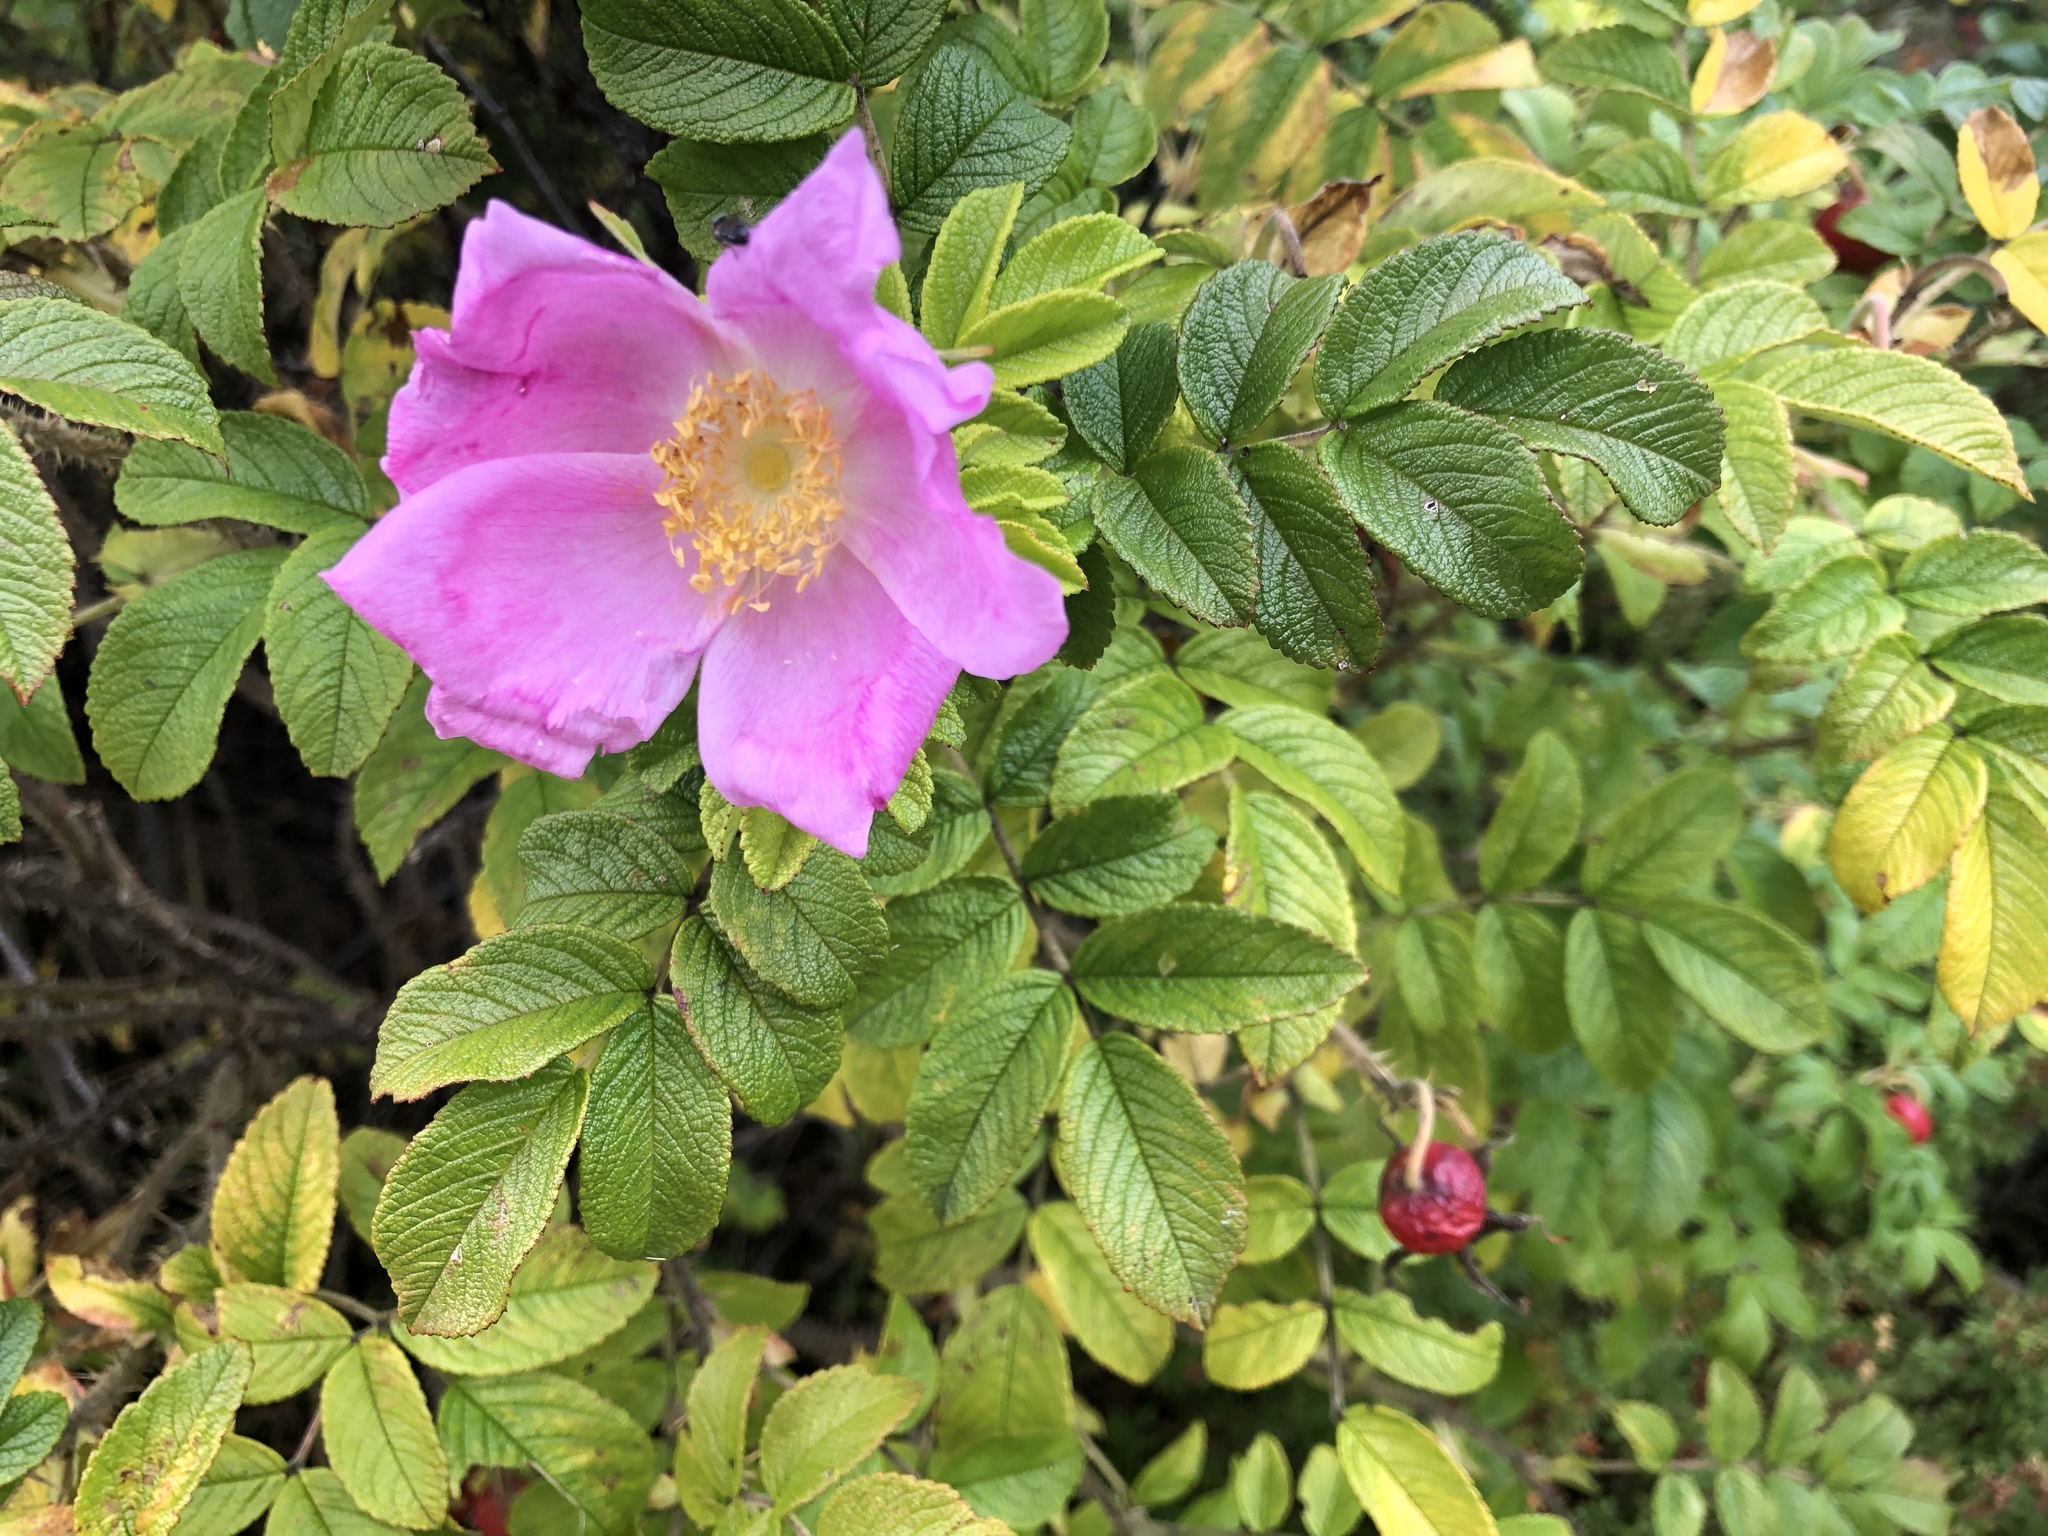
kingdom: Plantae
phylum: Tracheophyta
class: Magnoliopsida
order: Rosales
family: Rosaceae
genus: Rosa
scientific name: Rosa rugosa
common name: Japanese rose
